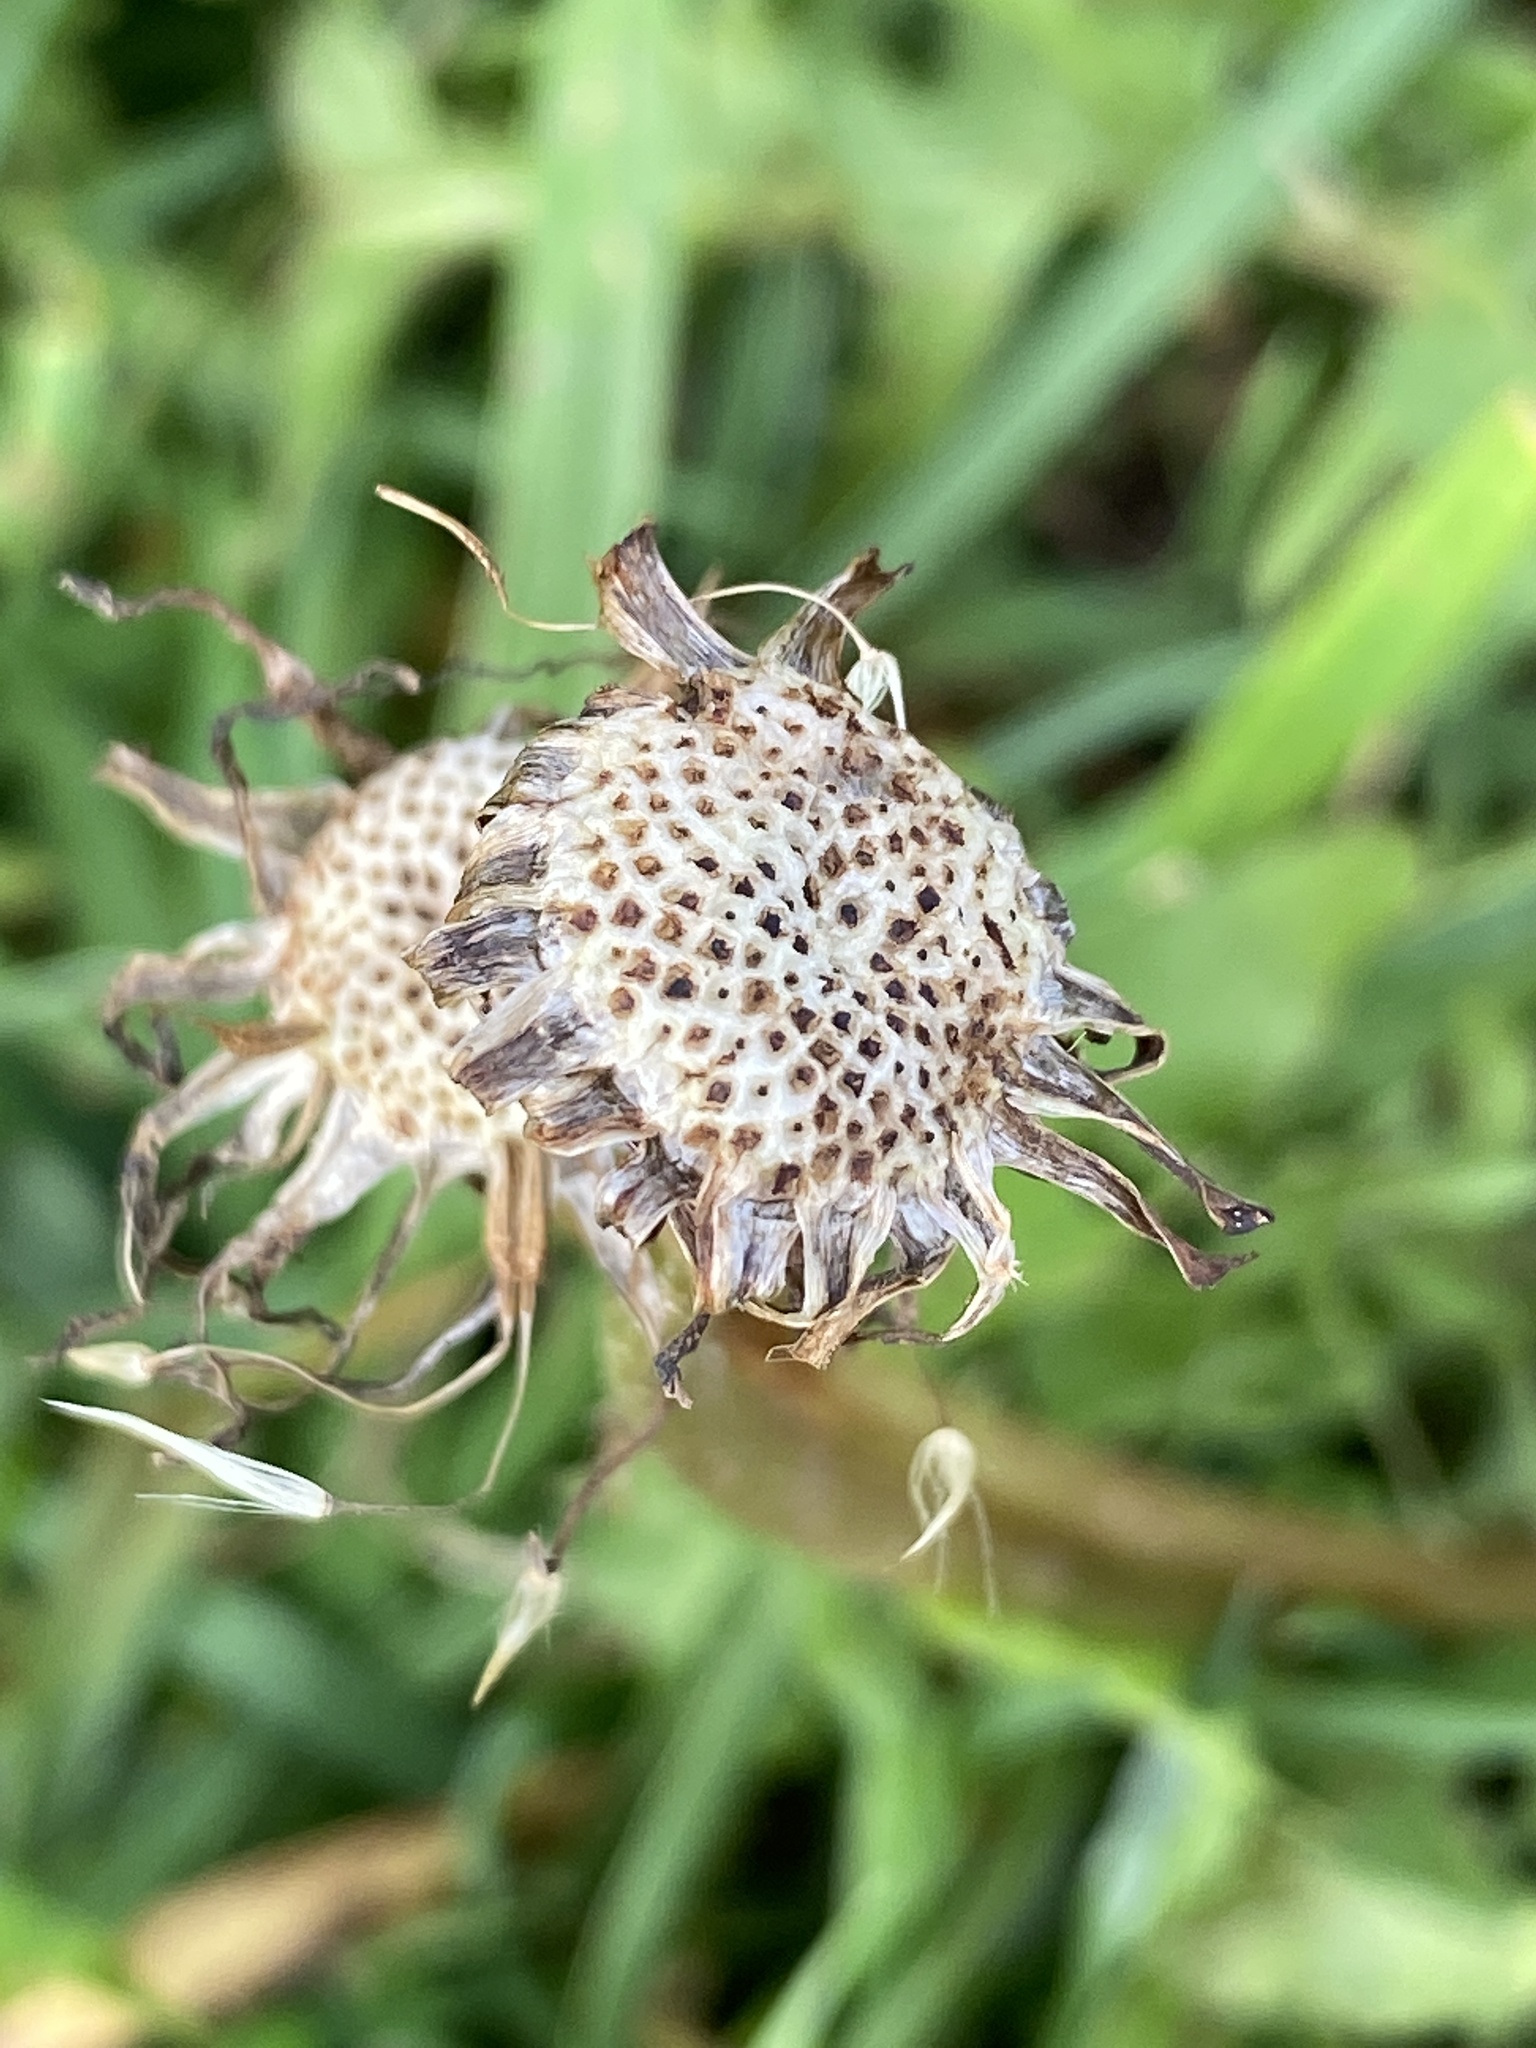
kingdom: Plantae
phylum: Tracheophyta
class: Magnoliopsida
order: Asterales
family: Asteraceae
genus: Taraxacum
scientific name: Taraxacum officinale
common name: Common dandelion
